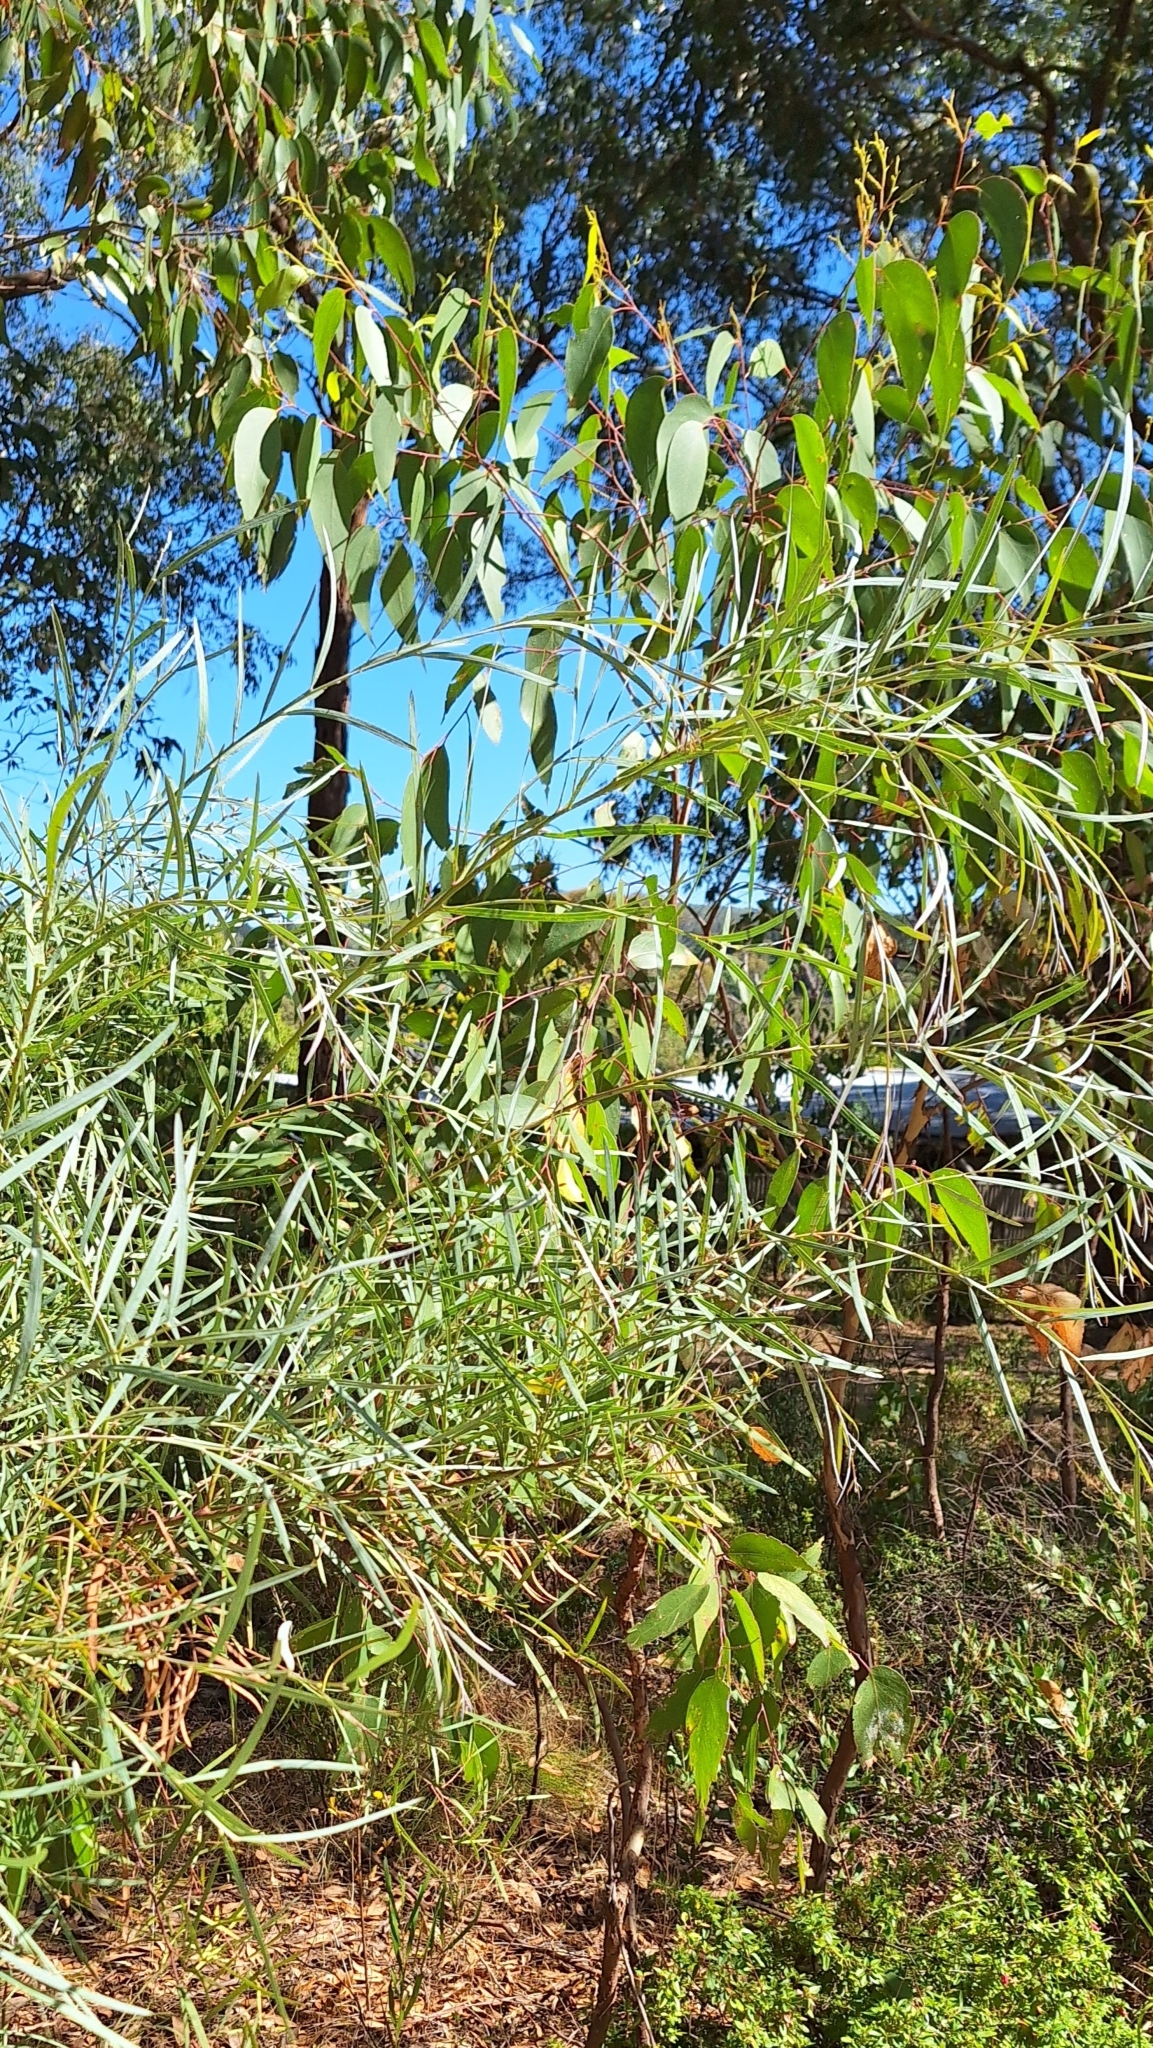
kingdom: Plantae
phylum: Tracheophyta
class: Magnoliopsida
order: Fabales
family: Fabaceae
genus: Acacia
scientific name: Acacia iteaphylla
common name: Flinders ranges wattle
